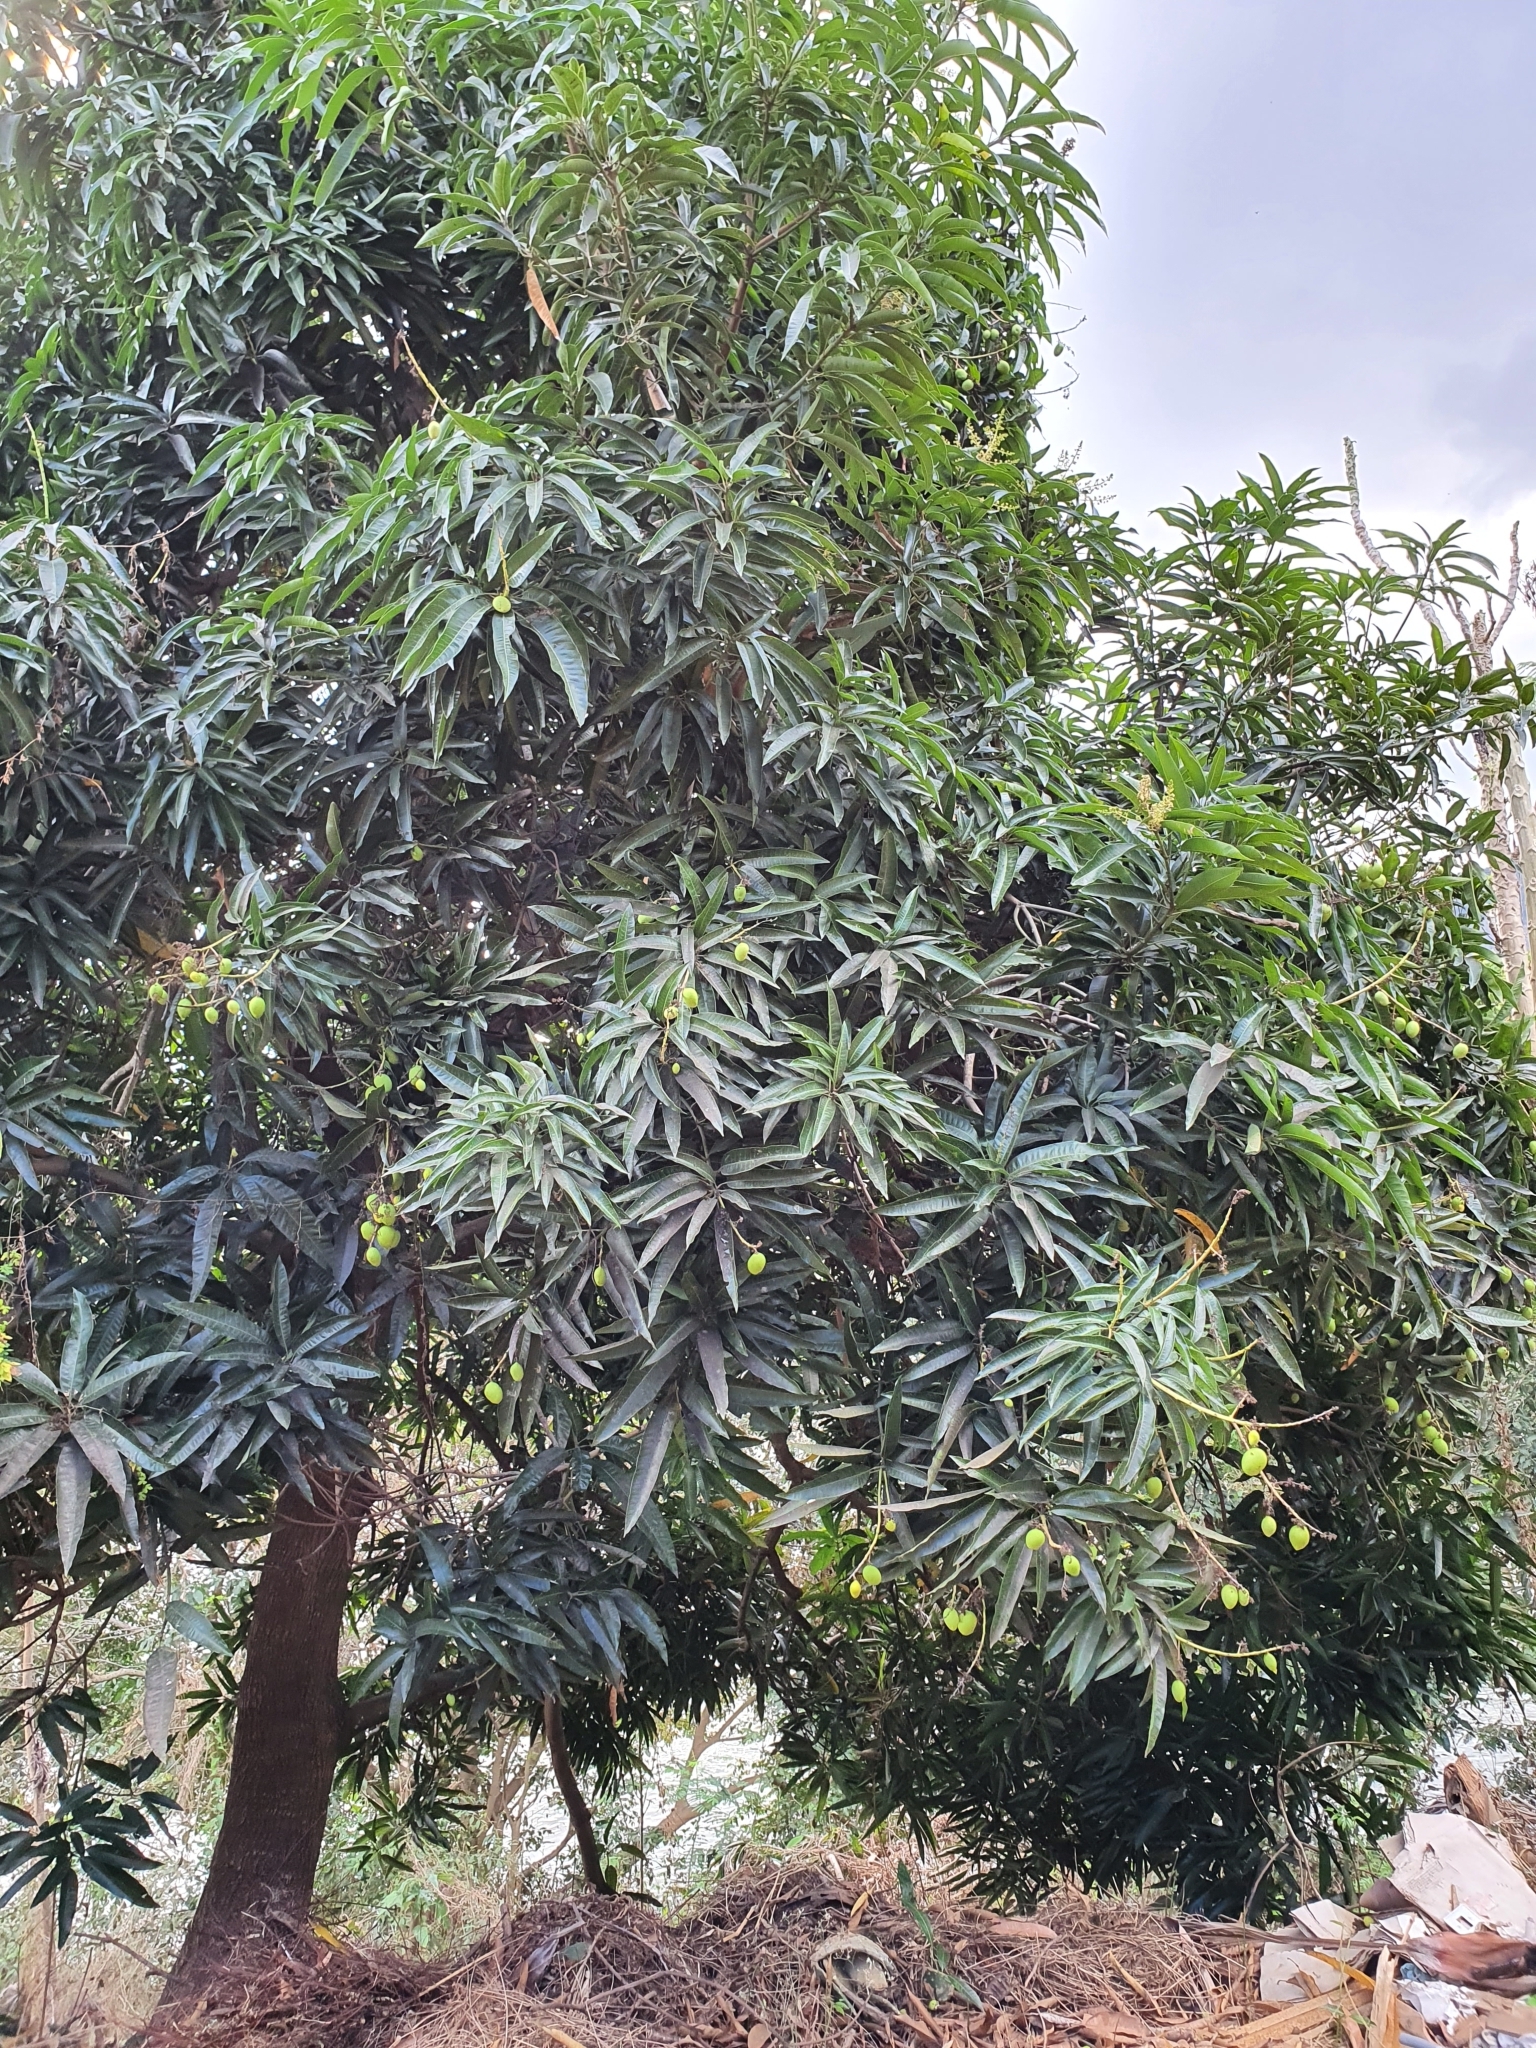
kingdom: Plantae
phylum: Tracheophyta
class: Magnoliopsida
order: Sapindales
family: Anacardiaceae
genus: Mangifera
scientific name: Mangifera indica
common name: Mango
